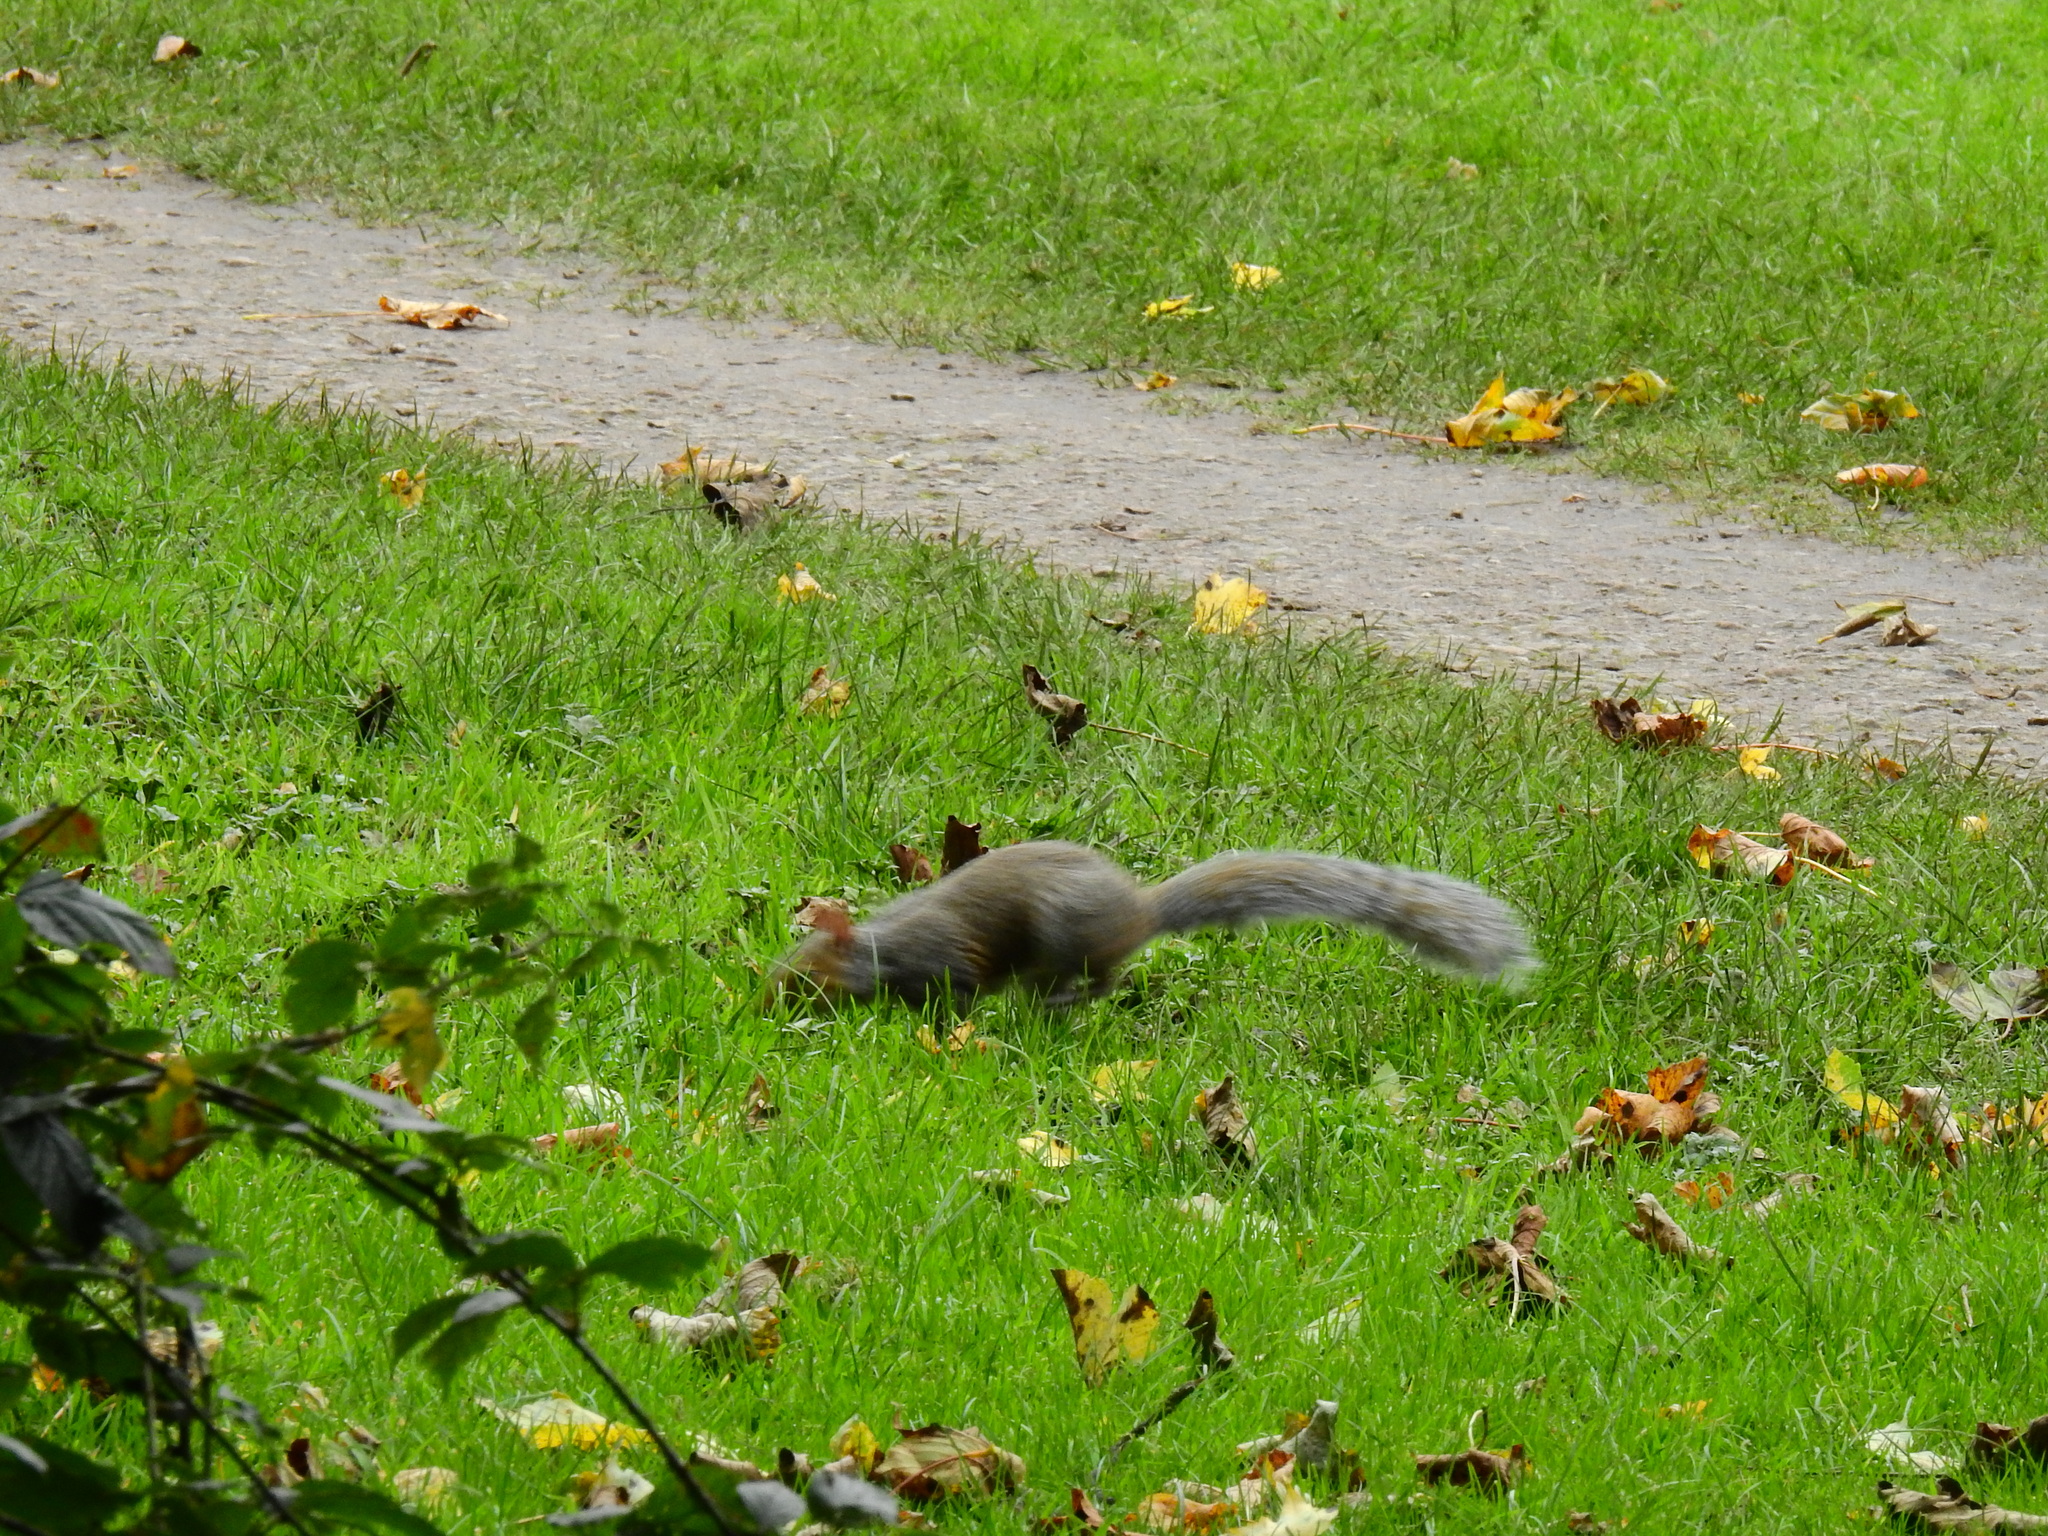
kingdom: Animalia
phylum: Chordata
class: Mammalia
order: Rodentia
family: Sciuridae
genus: Sciurus
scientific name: Sciurus carolinensis
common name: Eastern gray squirrel
